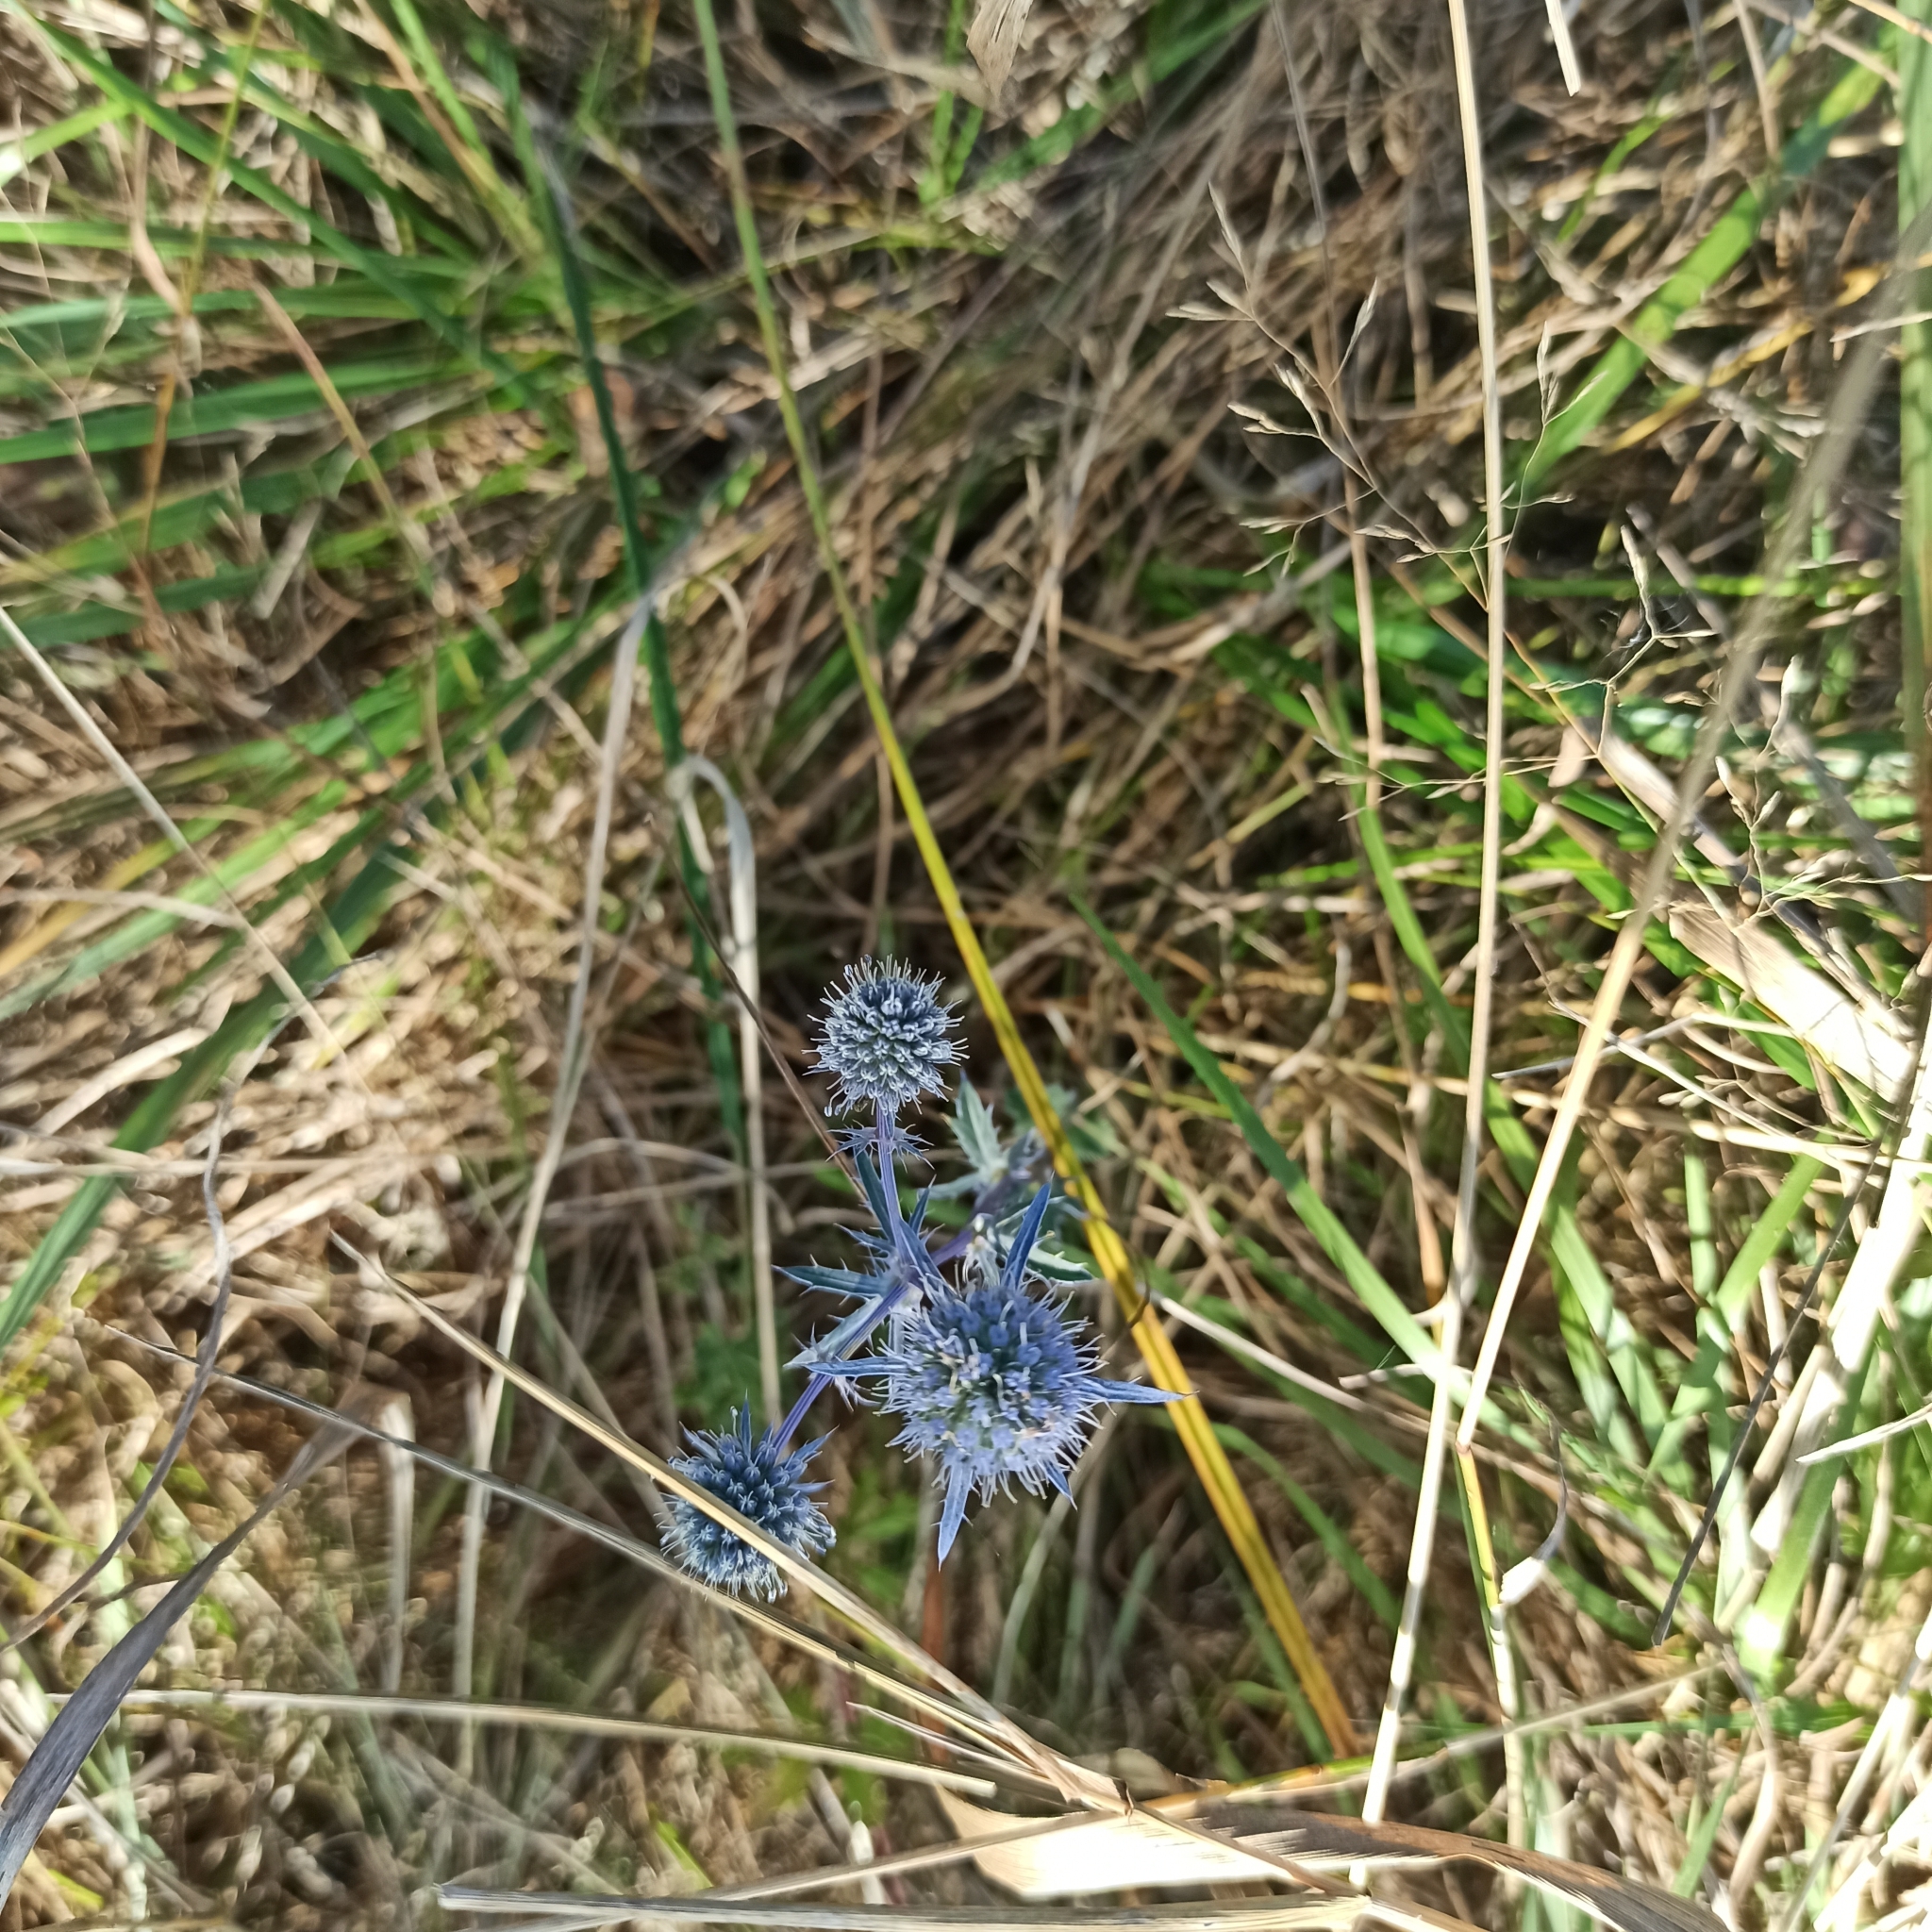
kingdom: Plantae
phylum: Tracheophyta
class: Magnoliopsida
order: Apiales
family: Apiaceae
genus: Eryngium
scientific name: Eryngium planum
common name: Blue eryngo
